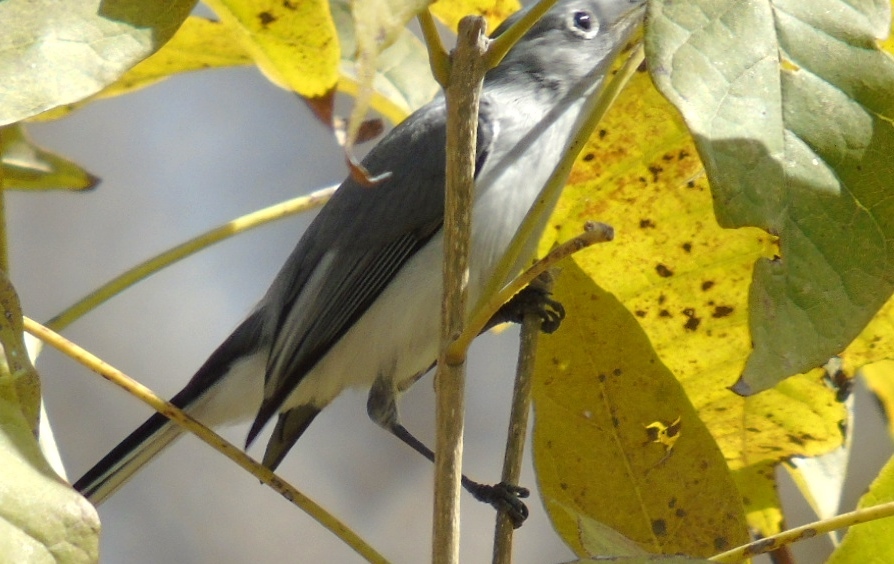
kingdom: Animalia
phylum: Chordata
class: Aves
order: Passeriformes
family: Polioptilidae
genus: Polioptila
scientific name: Polioptila caerulea
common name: Blue-gray gnatcatcher
